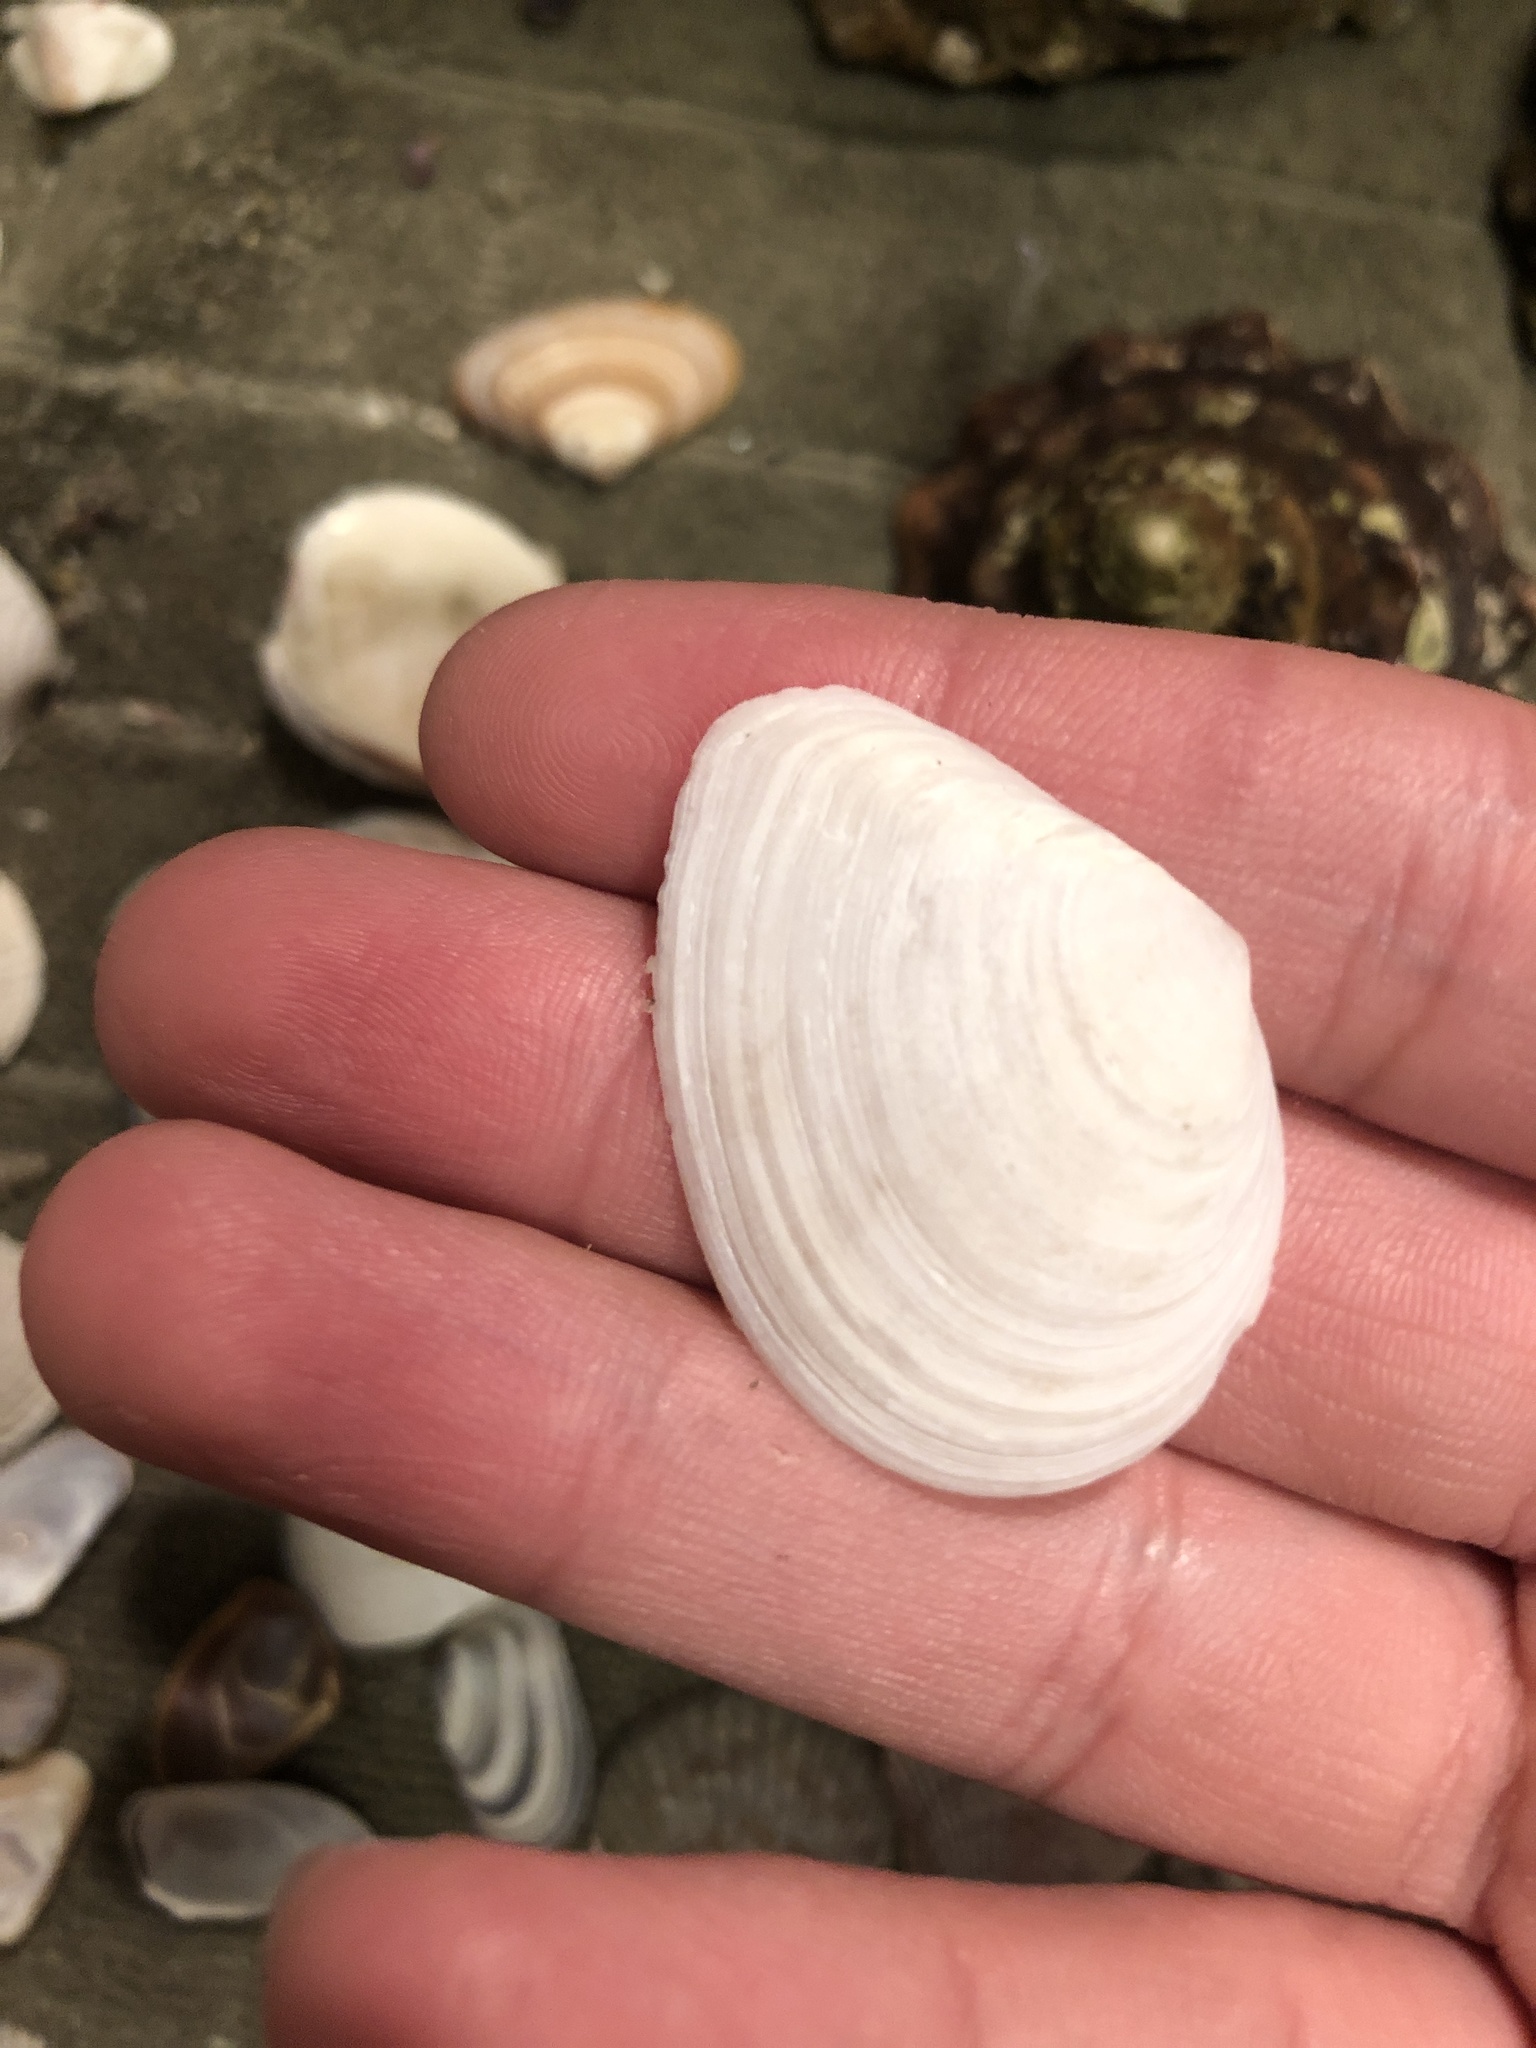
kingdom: Animalia
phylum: Mollusca
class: Bivalvia
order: Cardiida
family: Tellinidae
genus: Macoma
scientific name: Macoma nasuta
